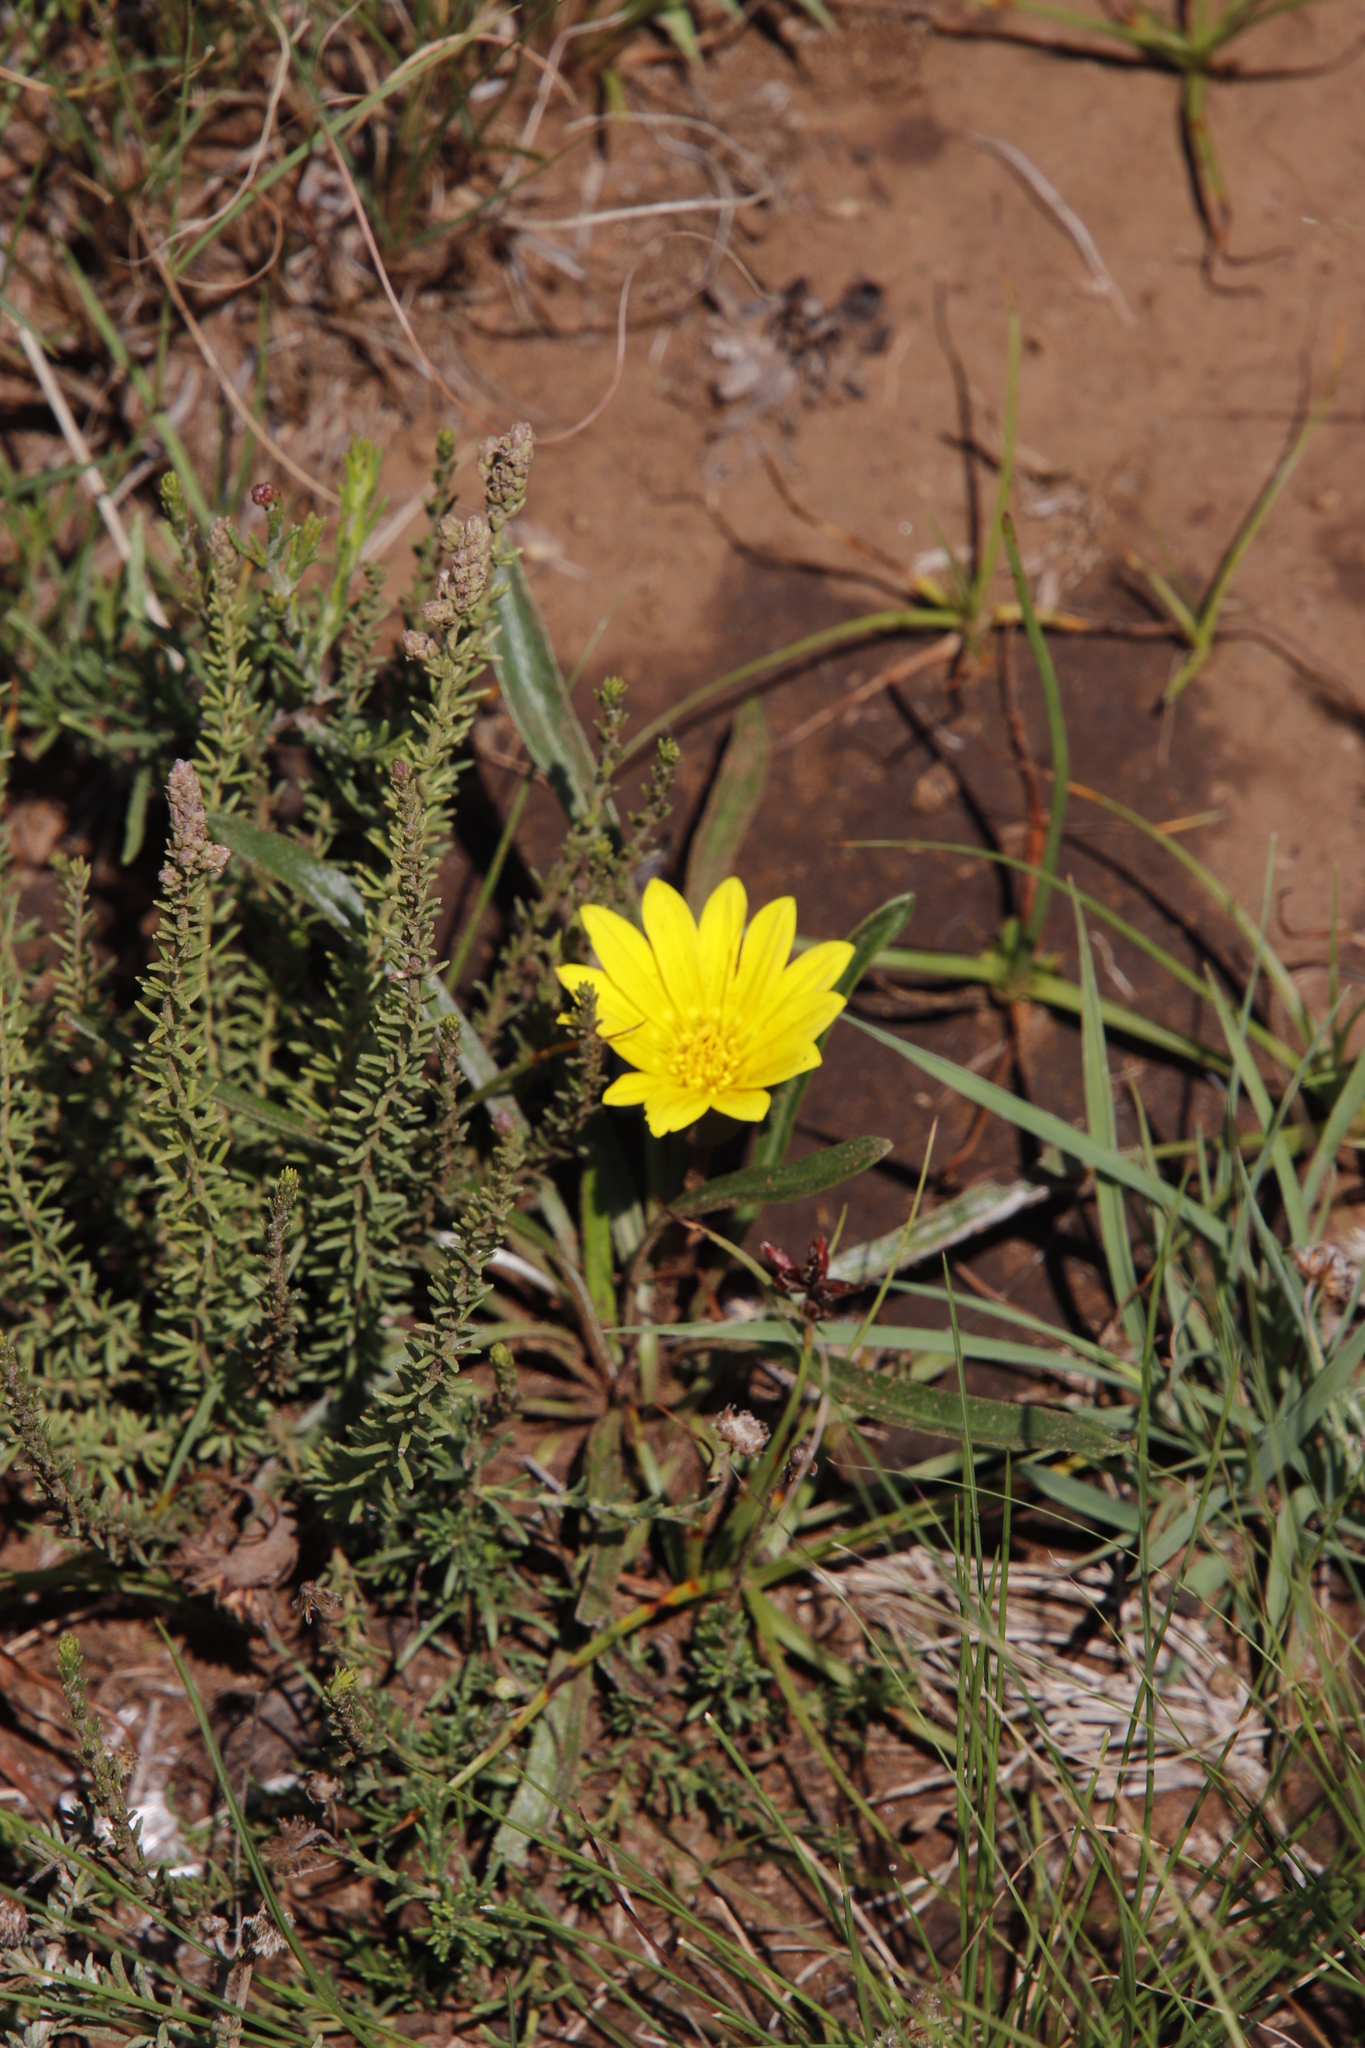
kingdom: Plantae
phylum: Tracheophyta
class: Magnoliopsida
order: Asterales
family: Asteraceae
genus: Gazania
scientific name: Gazania krebsiana
